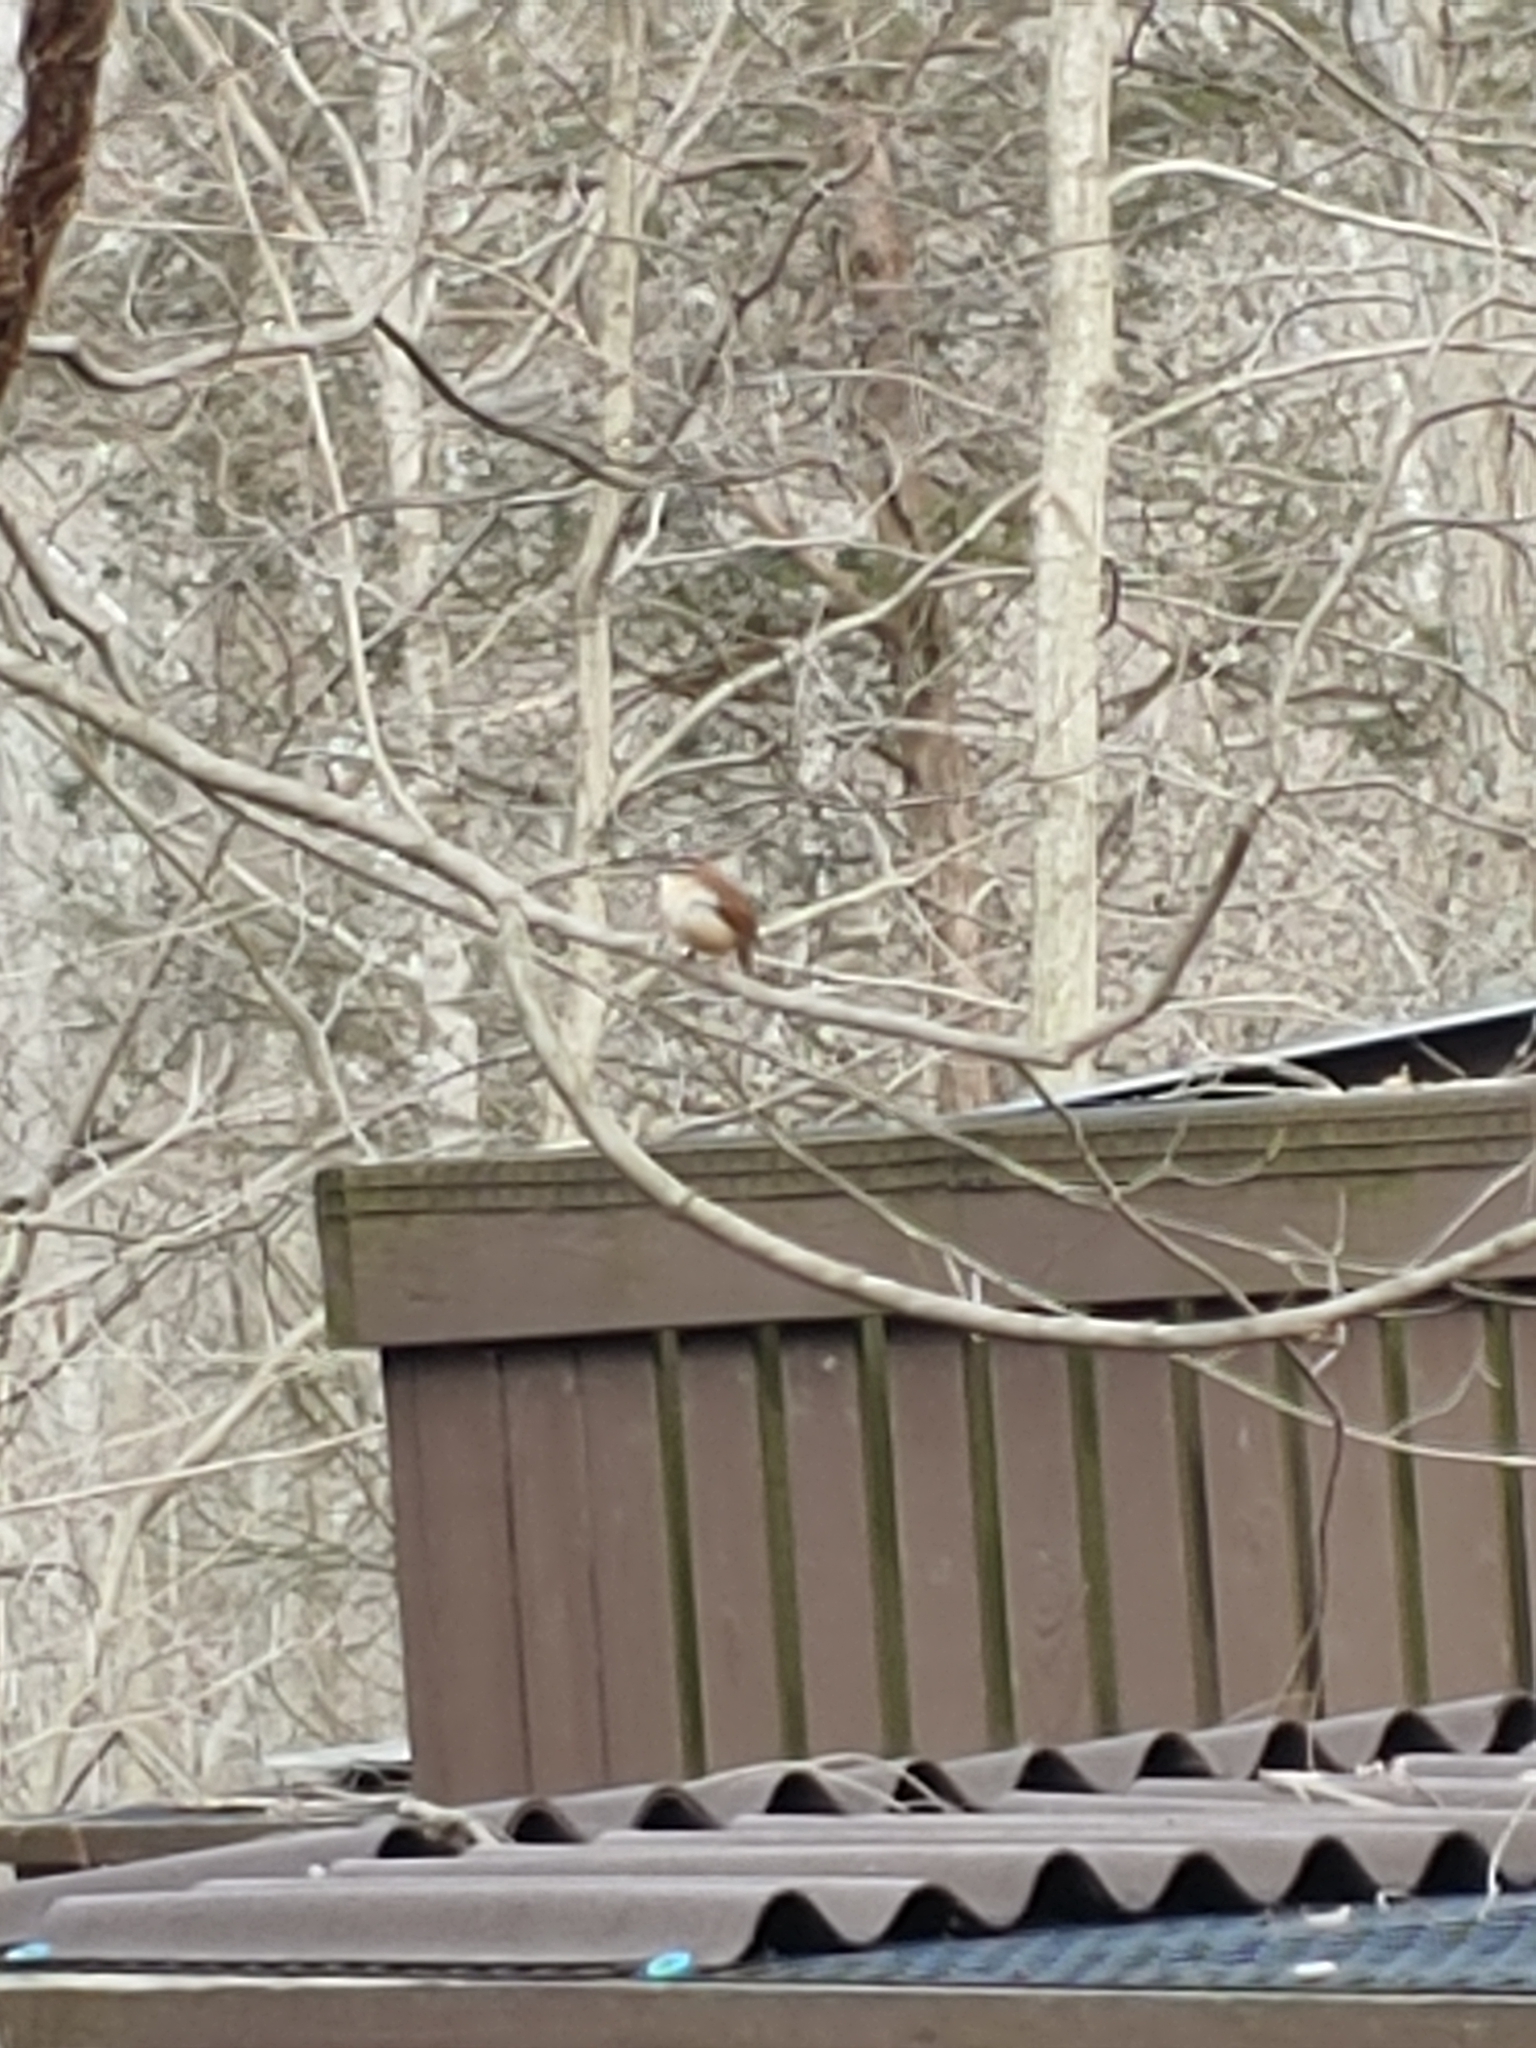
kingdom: Animalia
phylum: Chordata
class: Aves
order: Passeriformes
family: Troglodytidae
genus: Thryothorus
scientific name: Thryothorus ludovicianus
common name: Carolina wren
